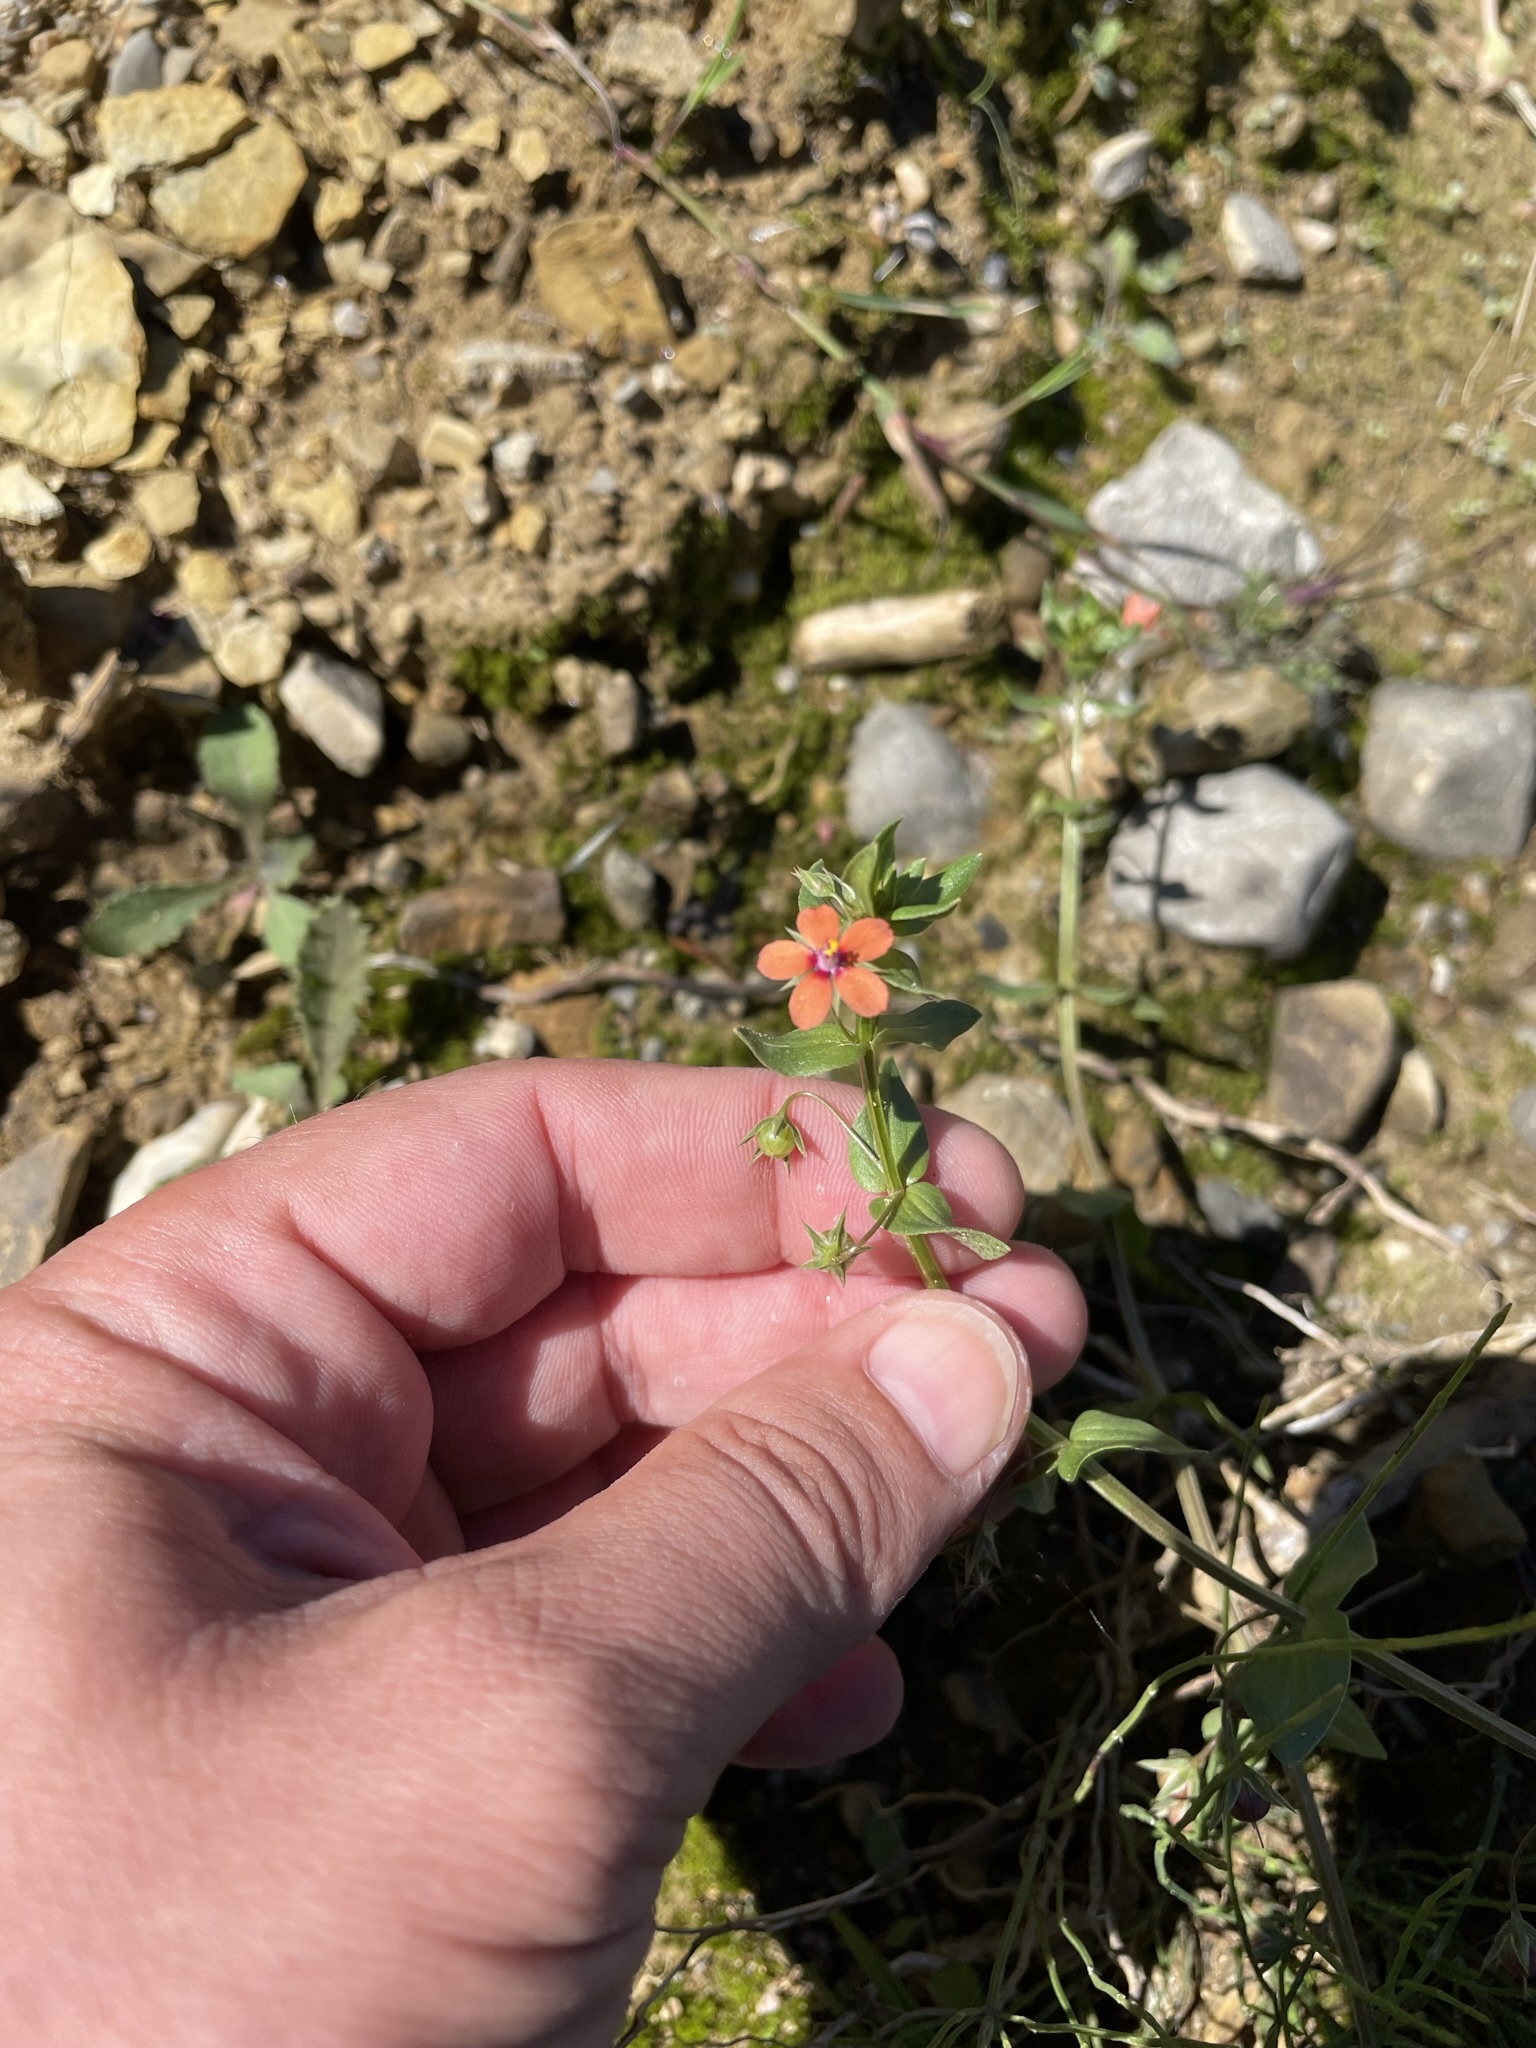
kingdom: Plantae
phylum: Tracheophyta
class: Magnoliopsida
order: Ericales
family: Primulaceae
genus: Lysimachia
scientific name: Lysimachia arvensis
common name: Scarlet pimpernel
